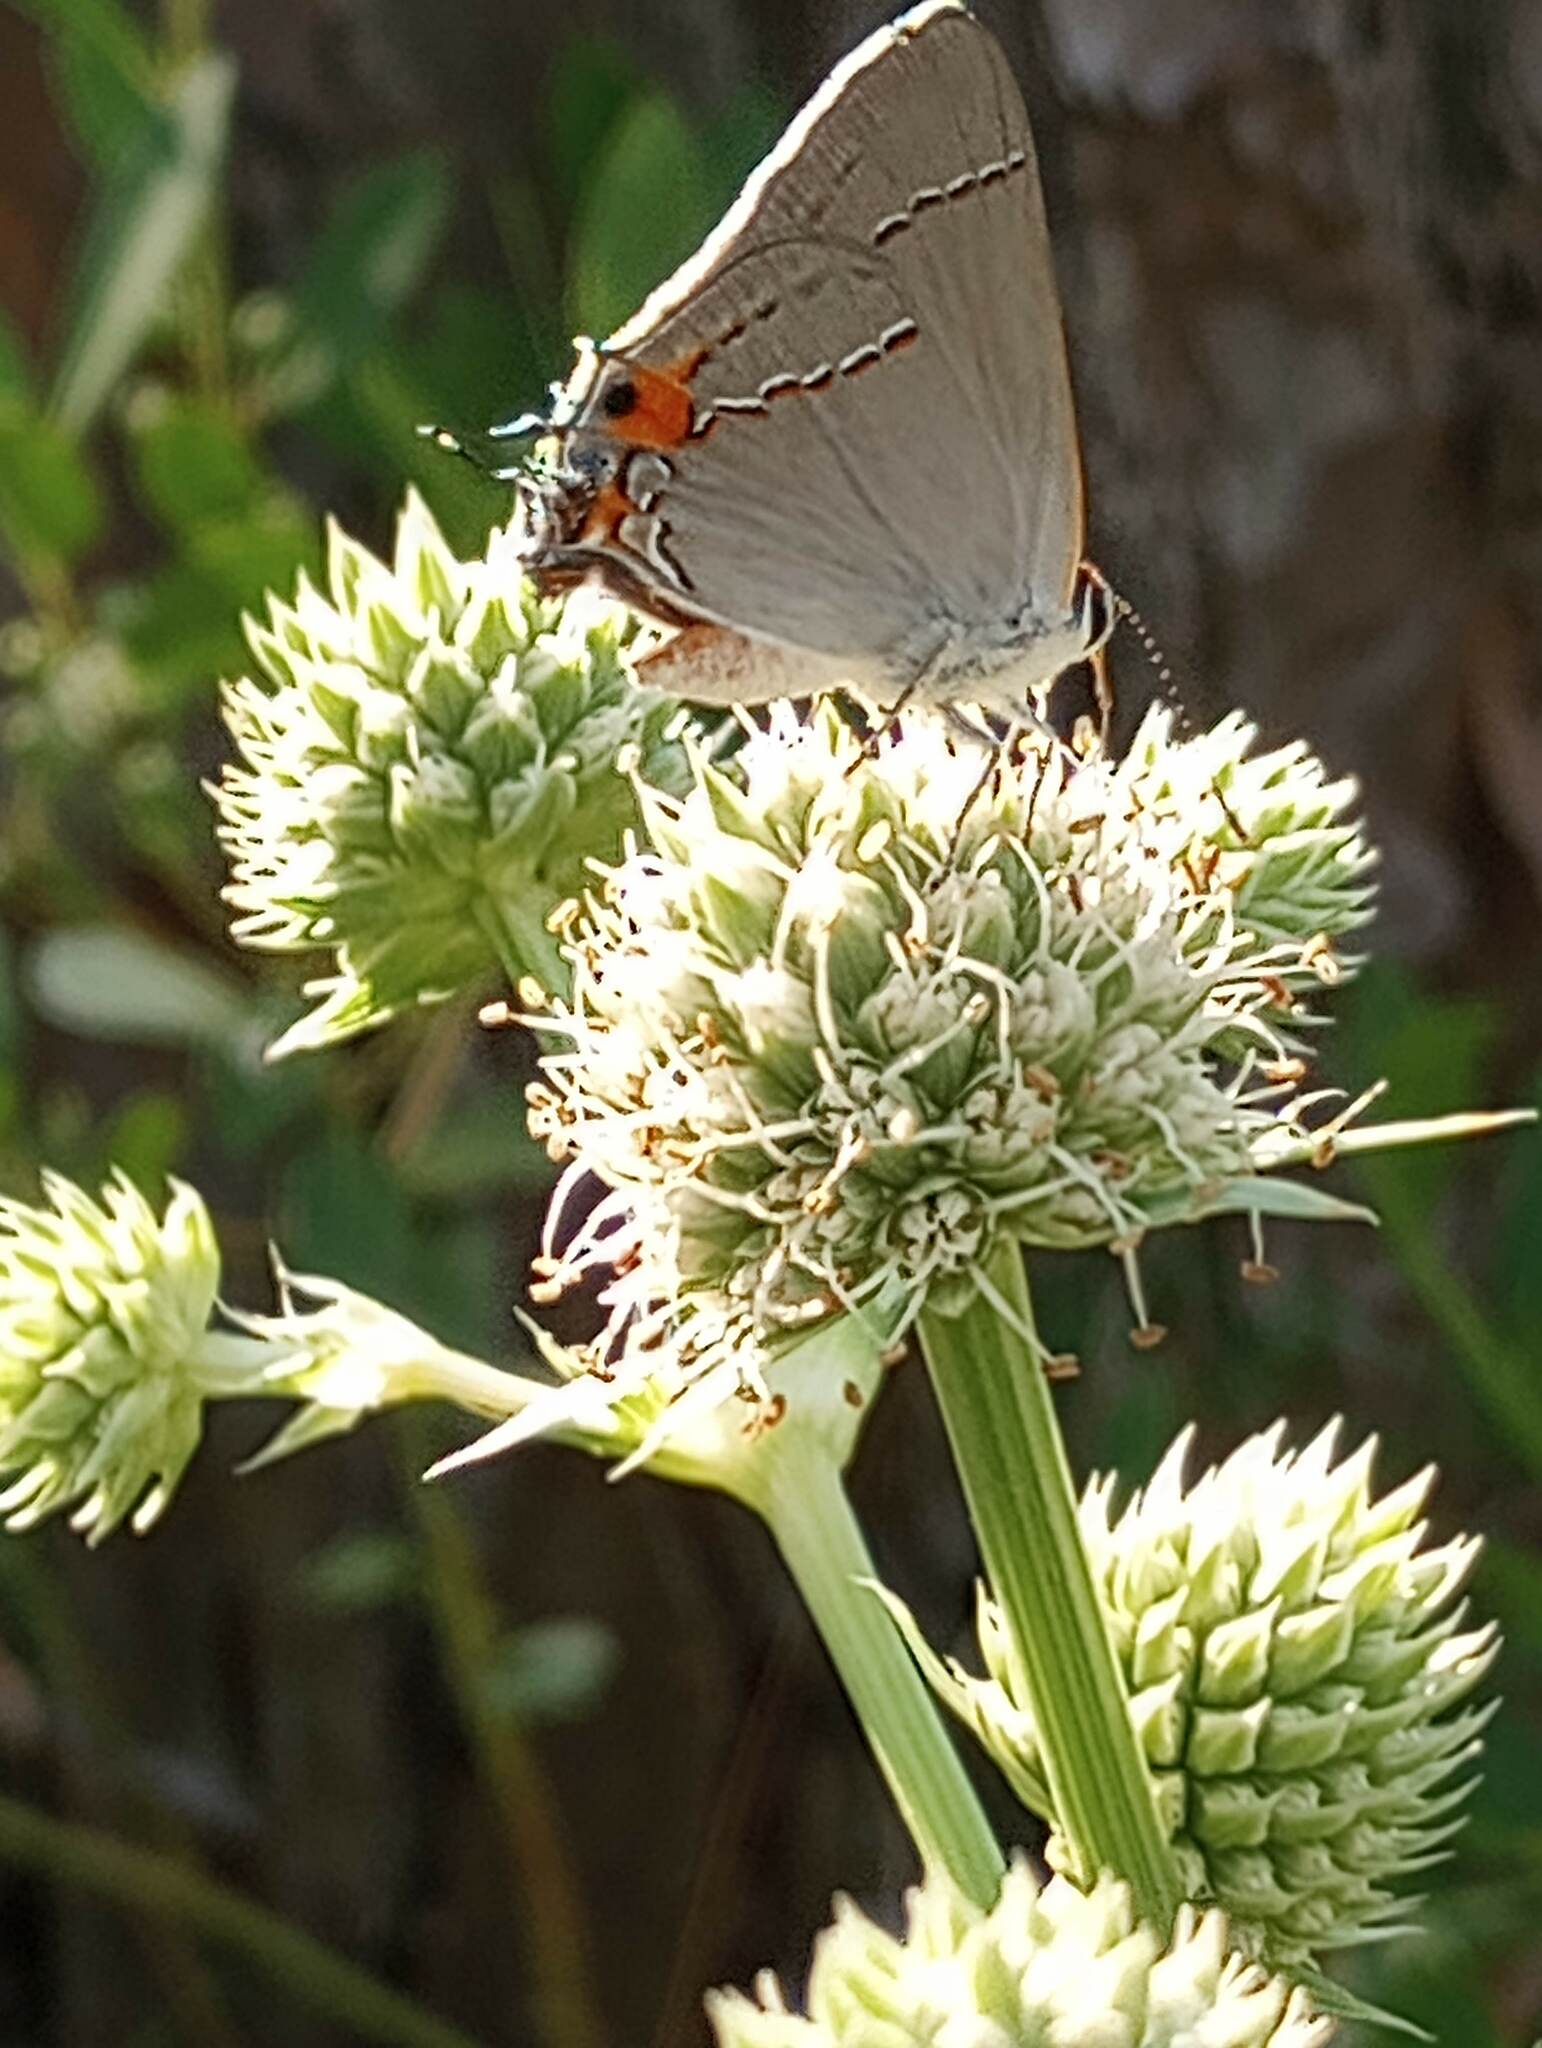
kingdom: Animalia
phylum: Arthropoda
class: Insecta
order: Lepidoptera
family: Lycaenidae
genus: Strymon
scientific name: Strymon melinus
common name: Gray hairstreak
